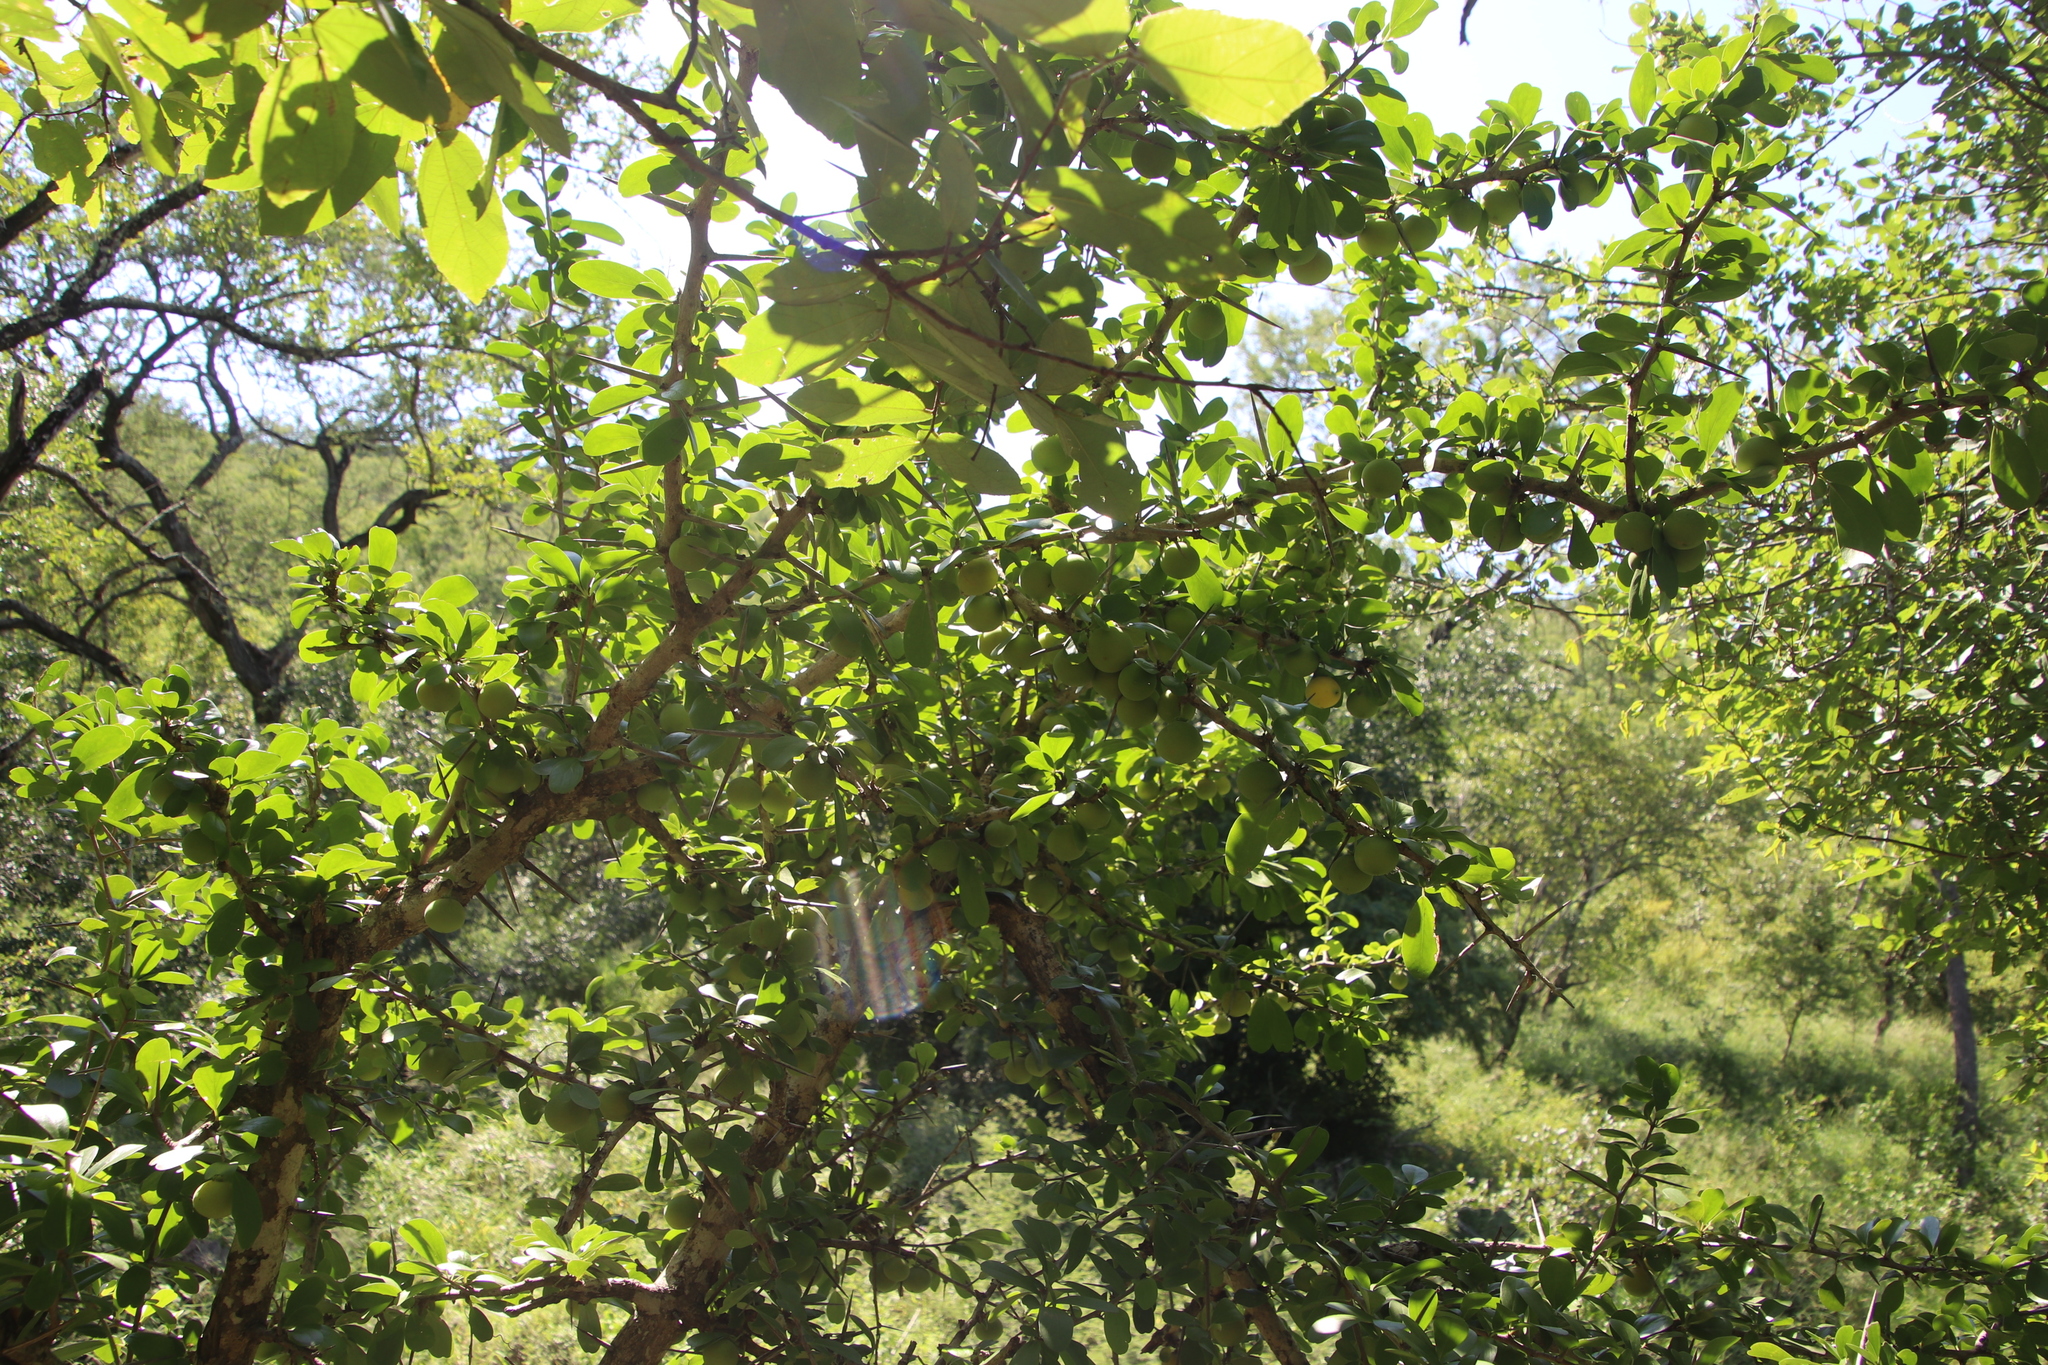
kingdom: Plantae
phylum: Tracheophyta
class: Magnoliopsida
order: Malpighiales
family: Salicaceae
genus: Dovyalis
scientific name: Dovyalis caffra
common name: Kei-apple
